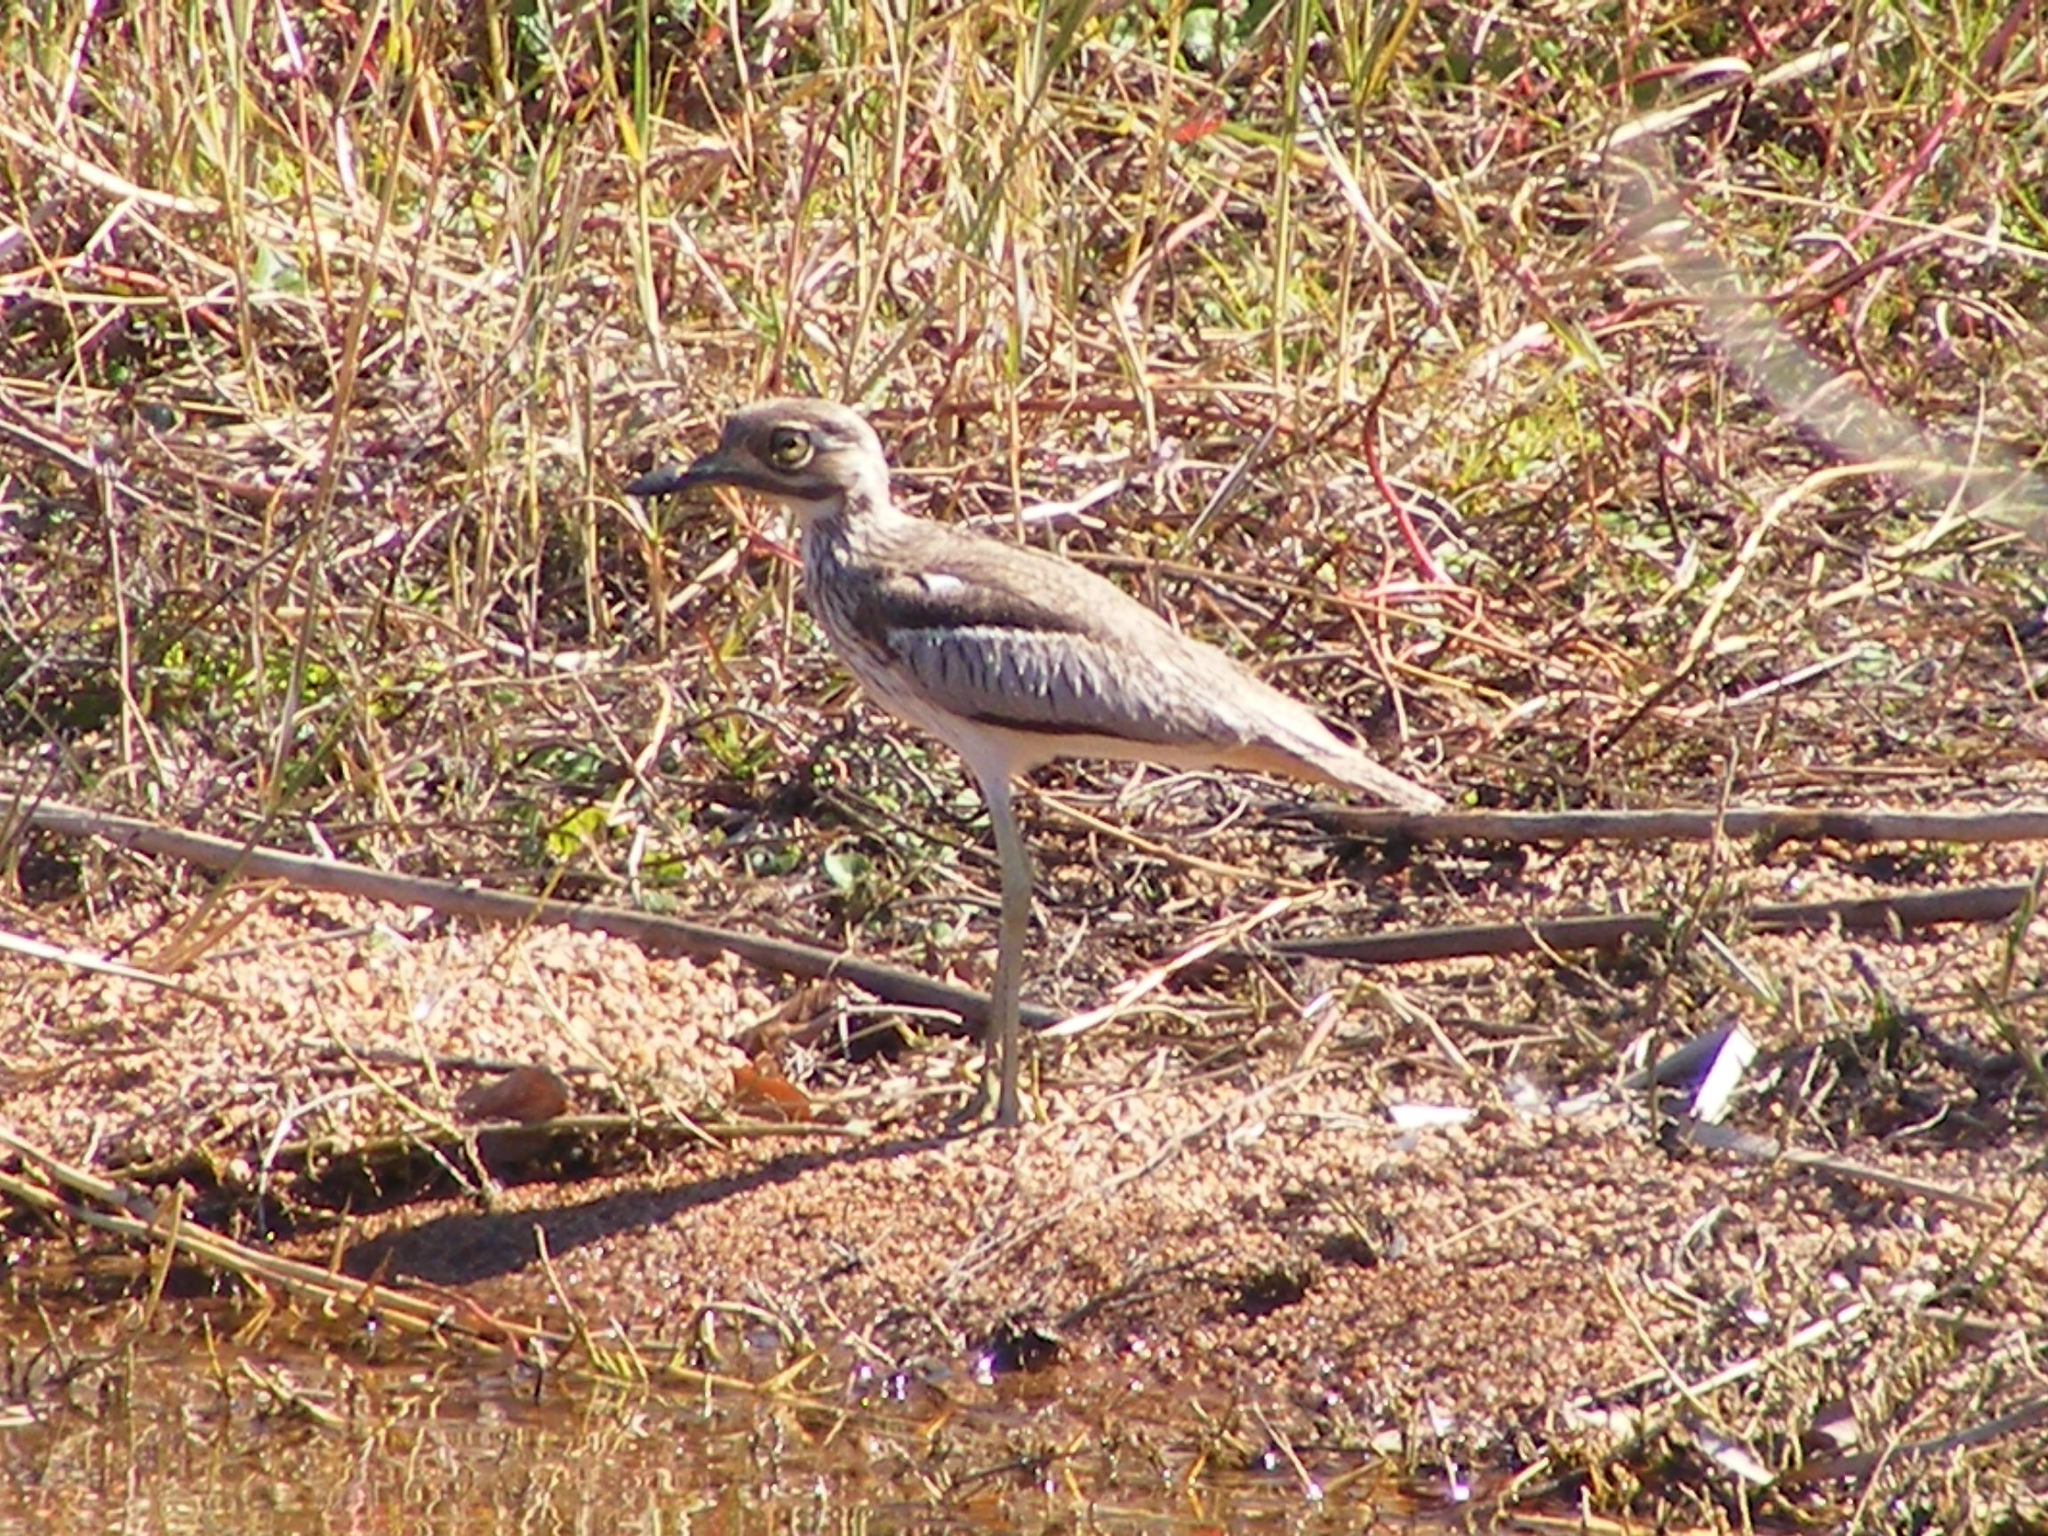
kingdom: Animalia
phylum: Chordata
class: Aves
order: Charadriiformes
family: Burhinidae
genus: Burhinus
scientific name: Burhinus vermiculatus
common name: Water thick-knee
